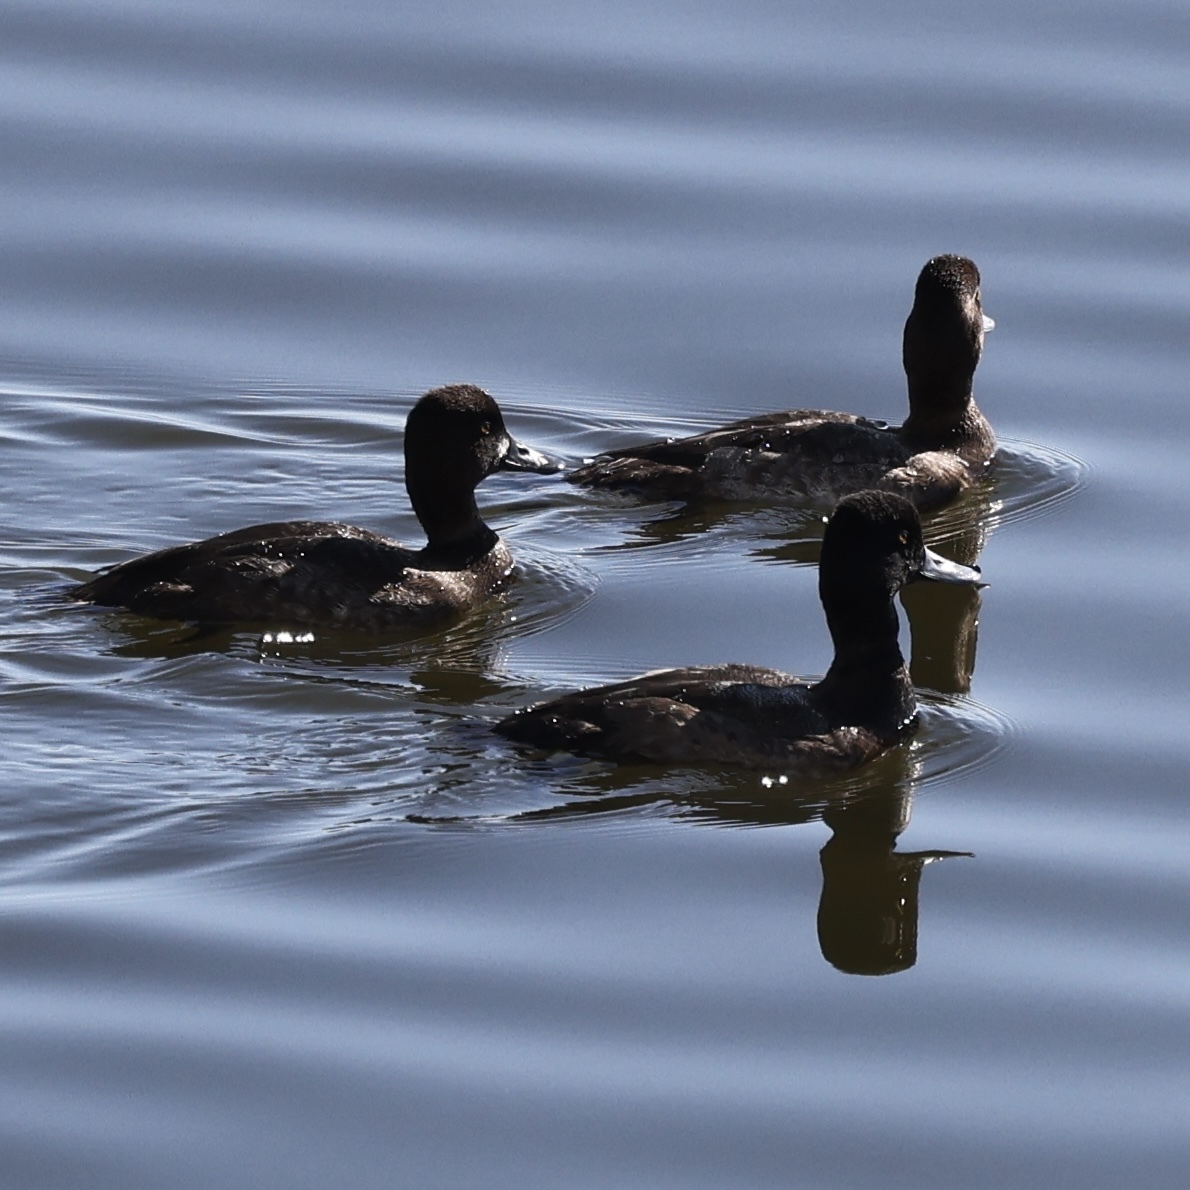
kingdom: Animalia
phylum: Chordata
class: Aves
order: Anseriformes
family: Anatidae
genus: Aythya
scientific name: Aythya affinis
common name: Lesser scaup
